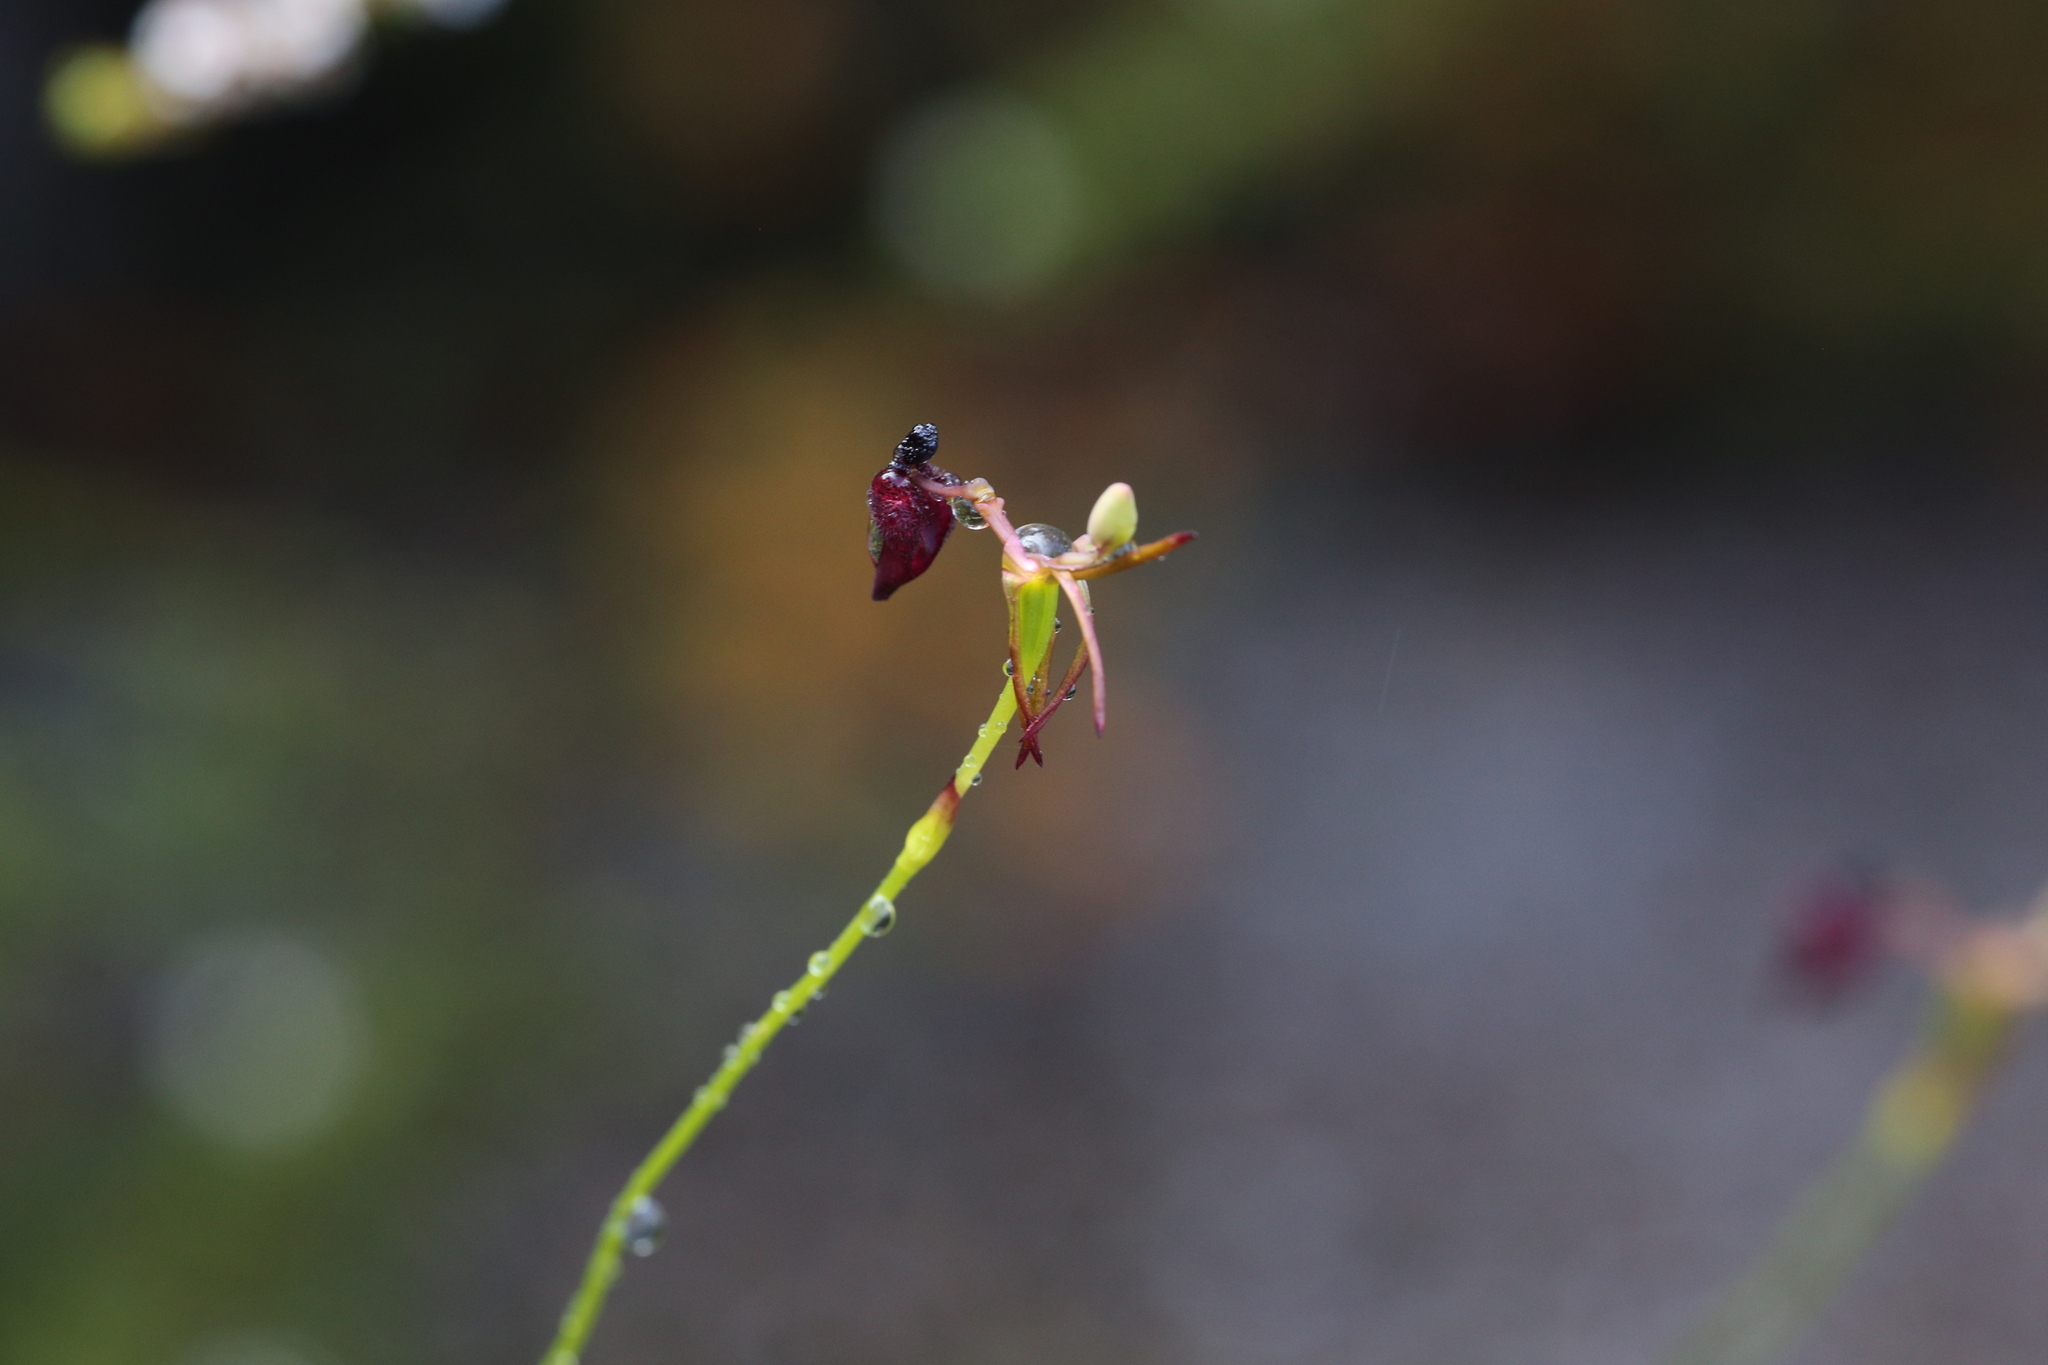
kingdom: Plantae
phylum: Tracheophyta
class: Liliopsida
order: Asparagales
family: Orchidaceae
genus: Drakaea
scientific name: Drakaea glyptodon
